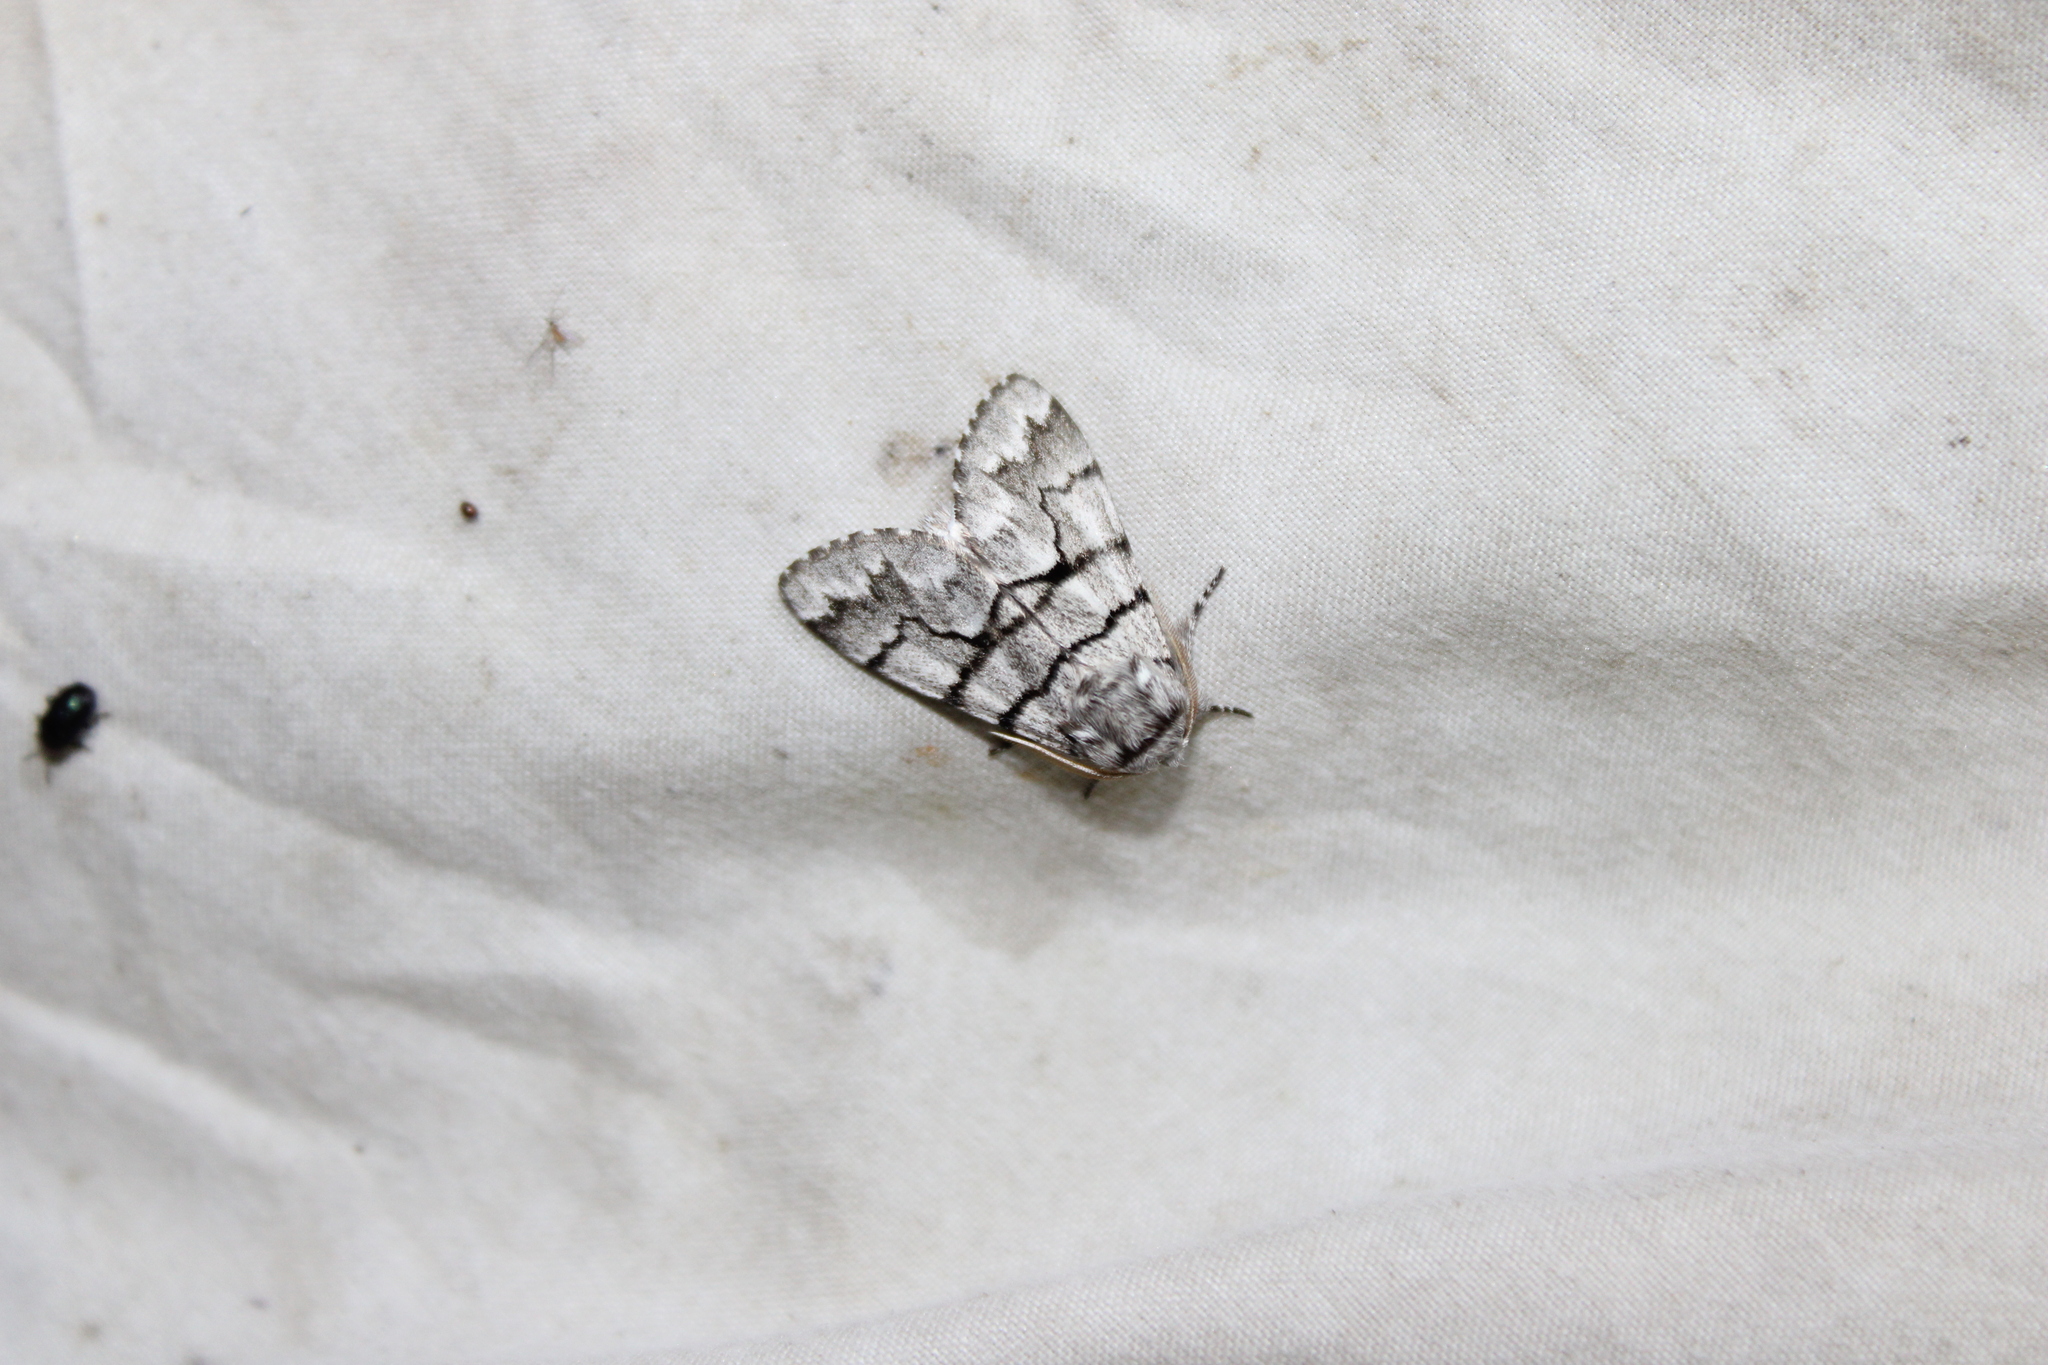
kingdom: Animalia
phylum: Arthropoda
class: Insecta
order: Lepidoptera
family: Noctuidae
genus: Panthea
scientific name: Panthea furcilla
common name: Eastern panthea moth
